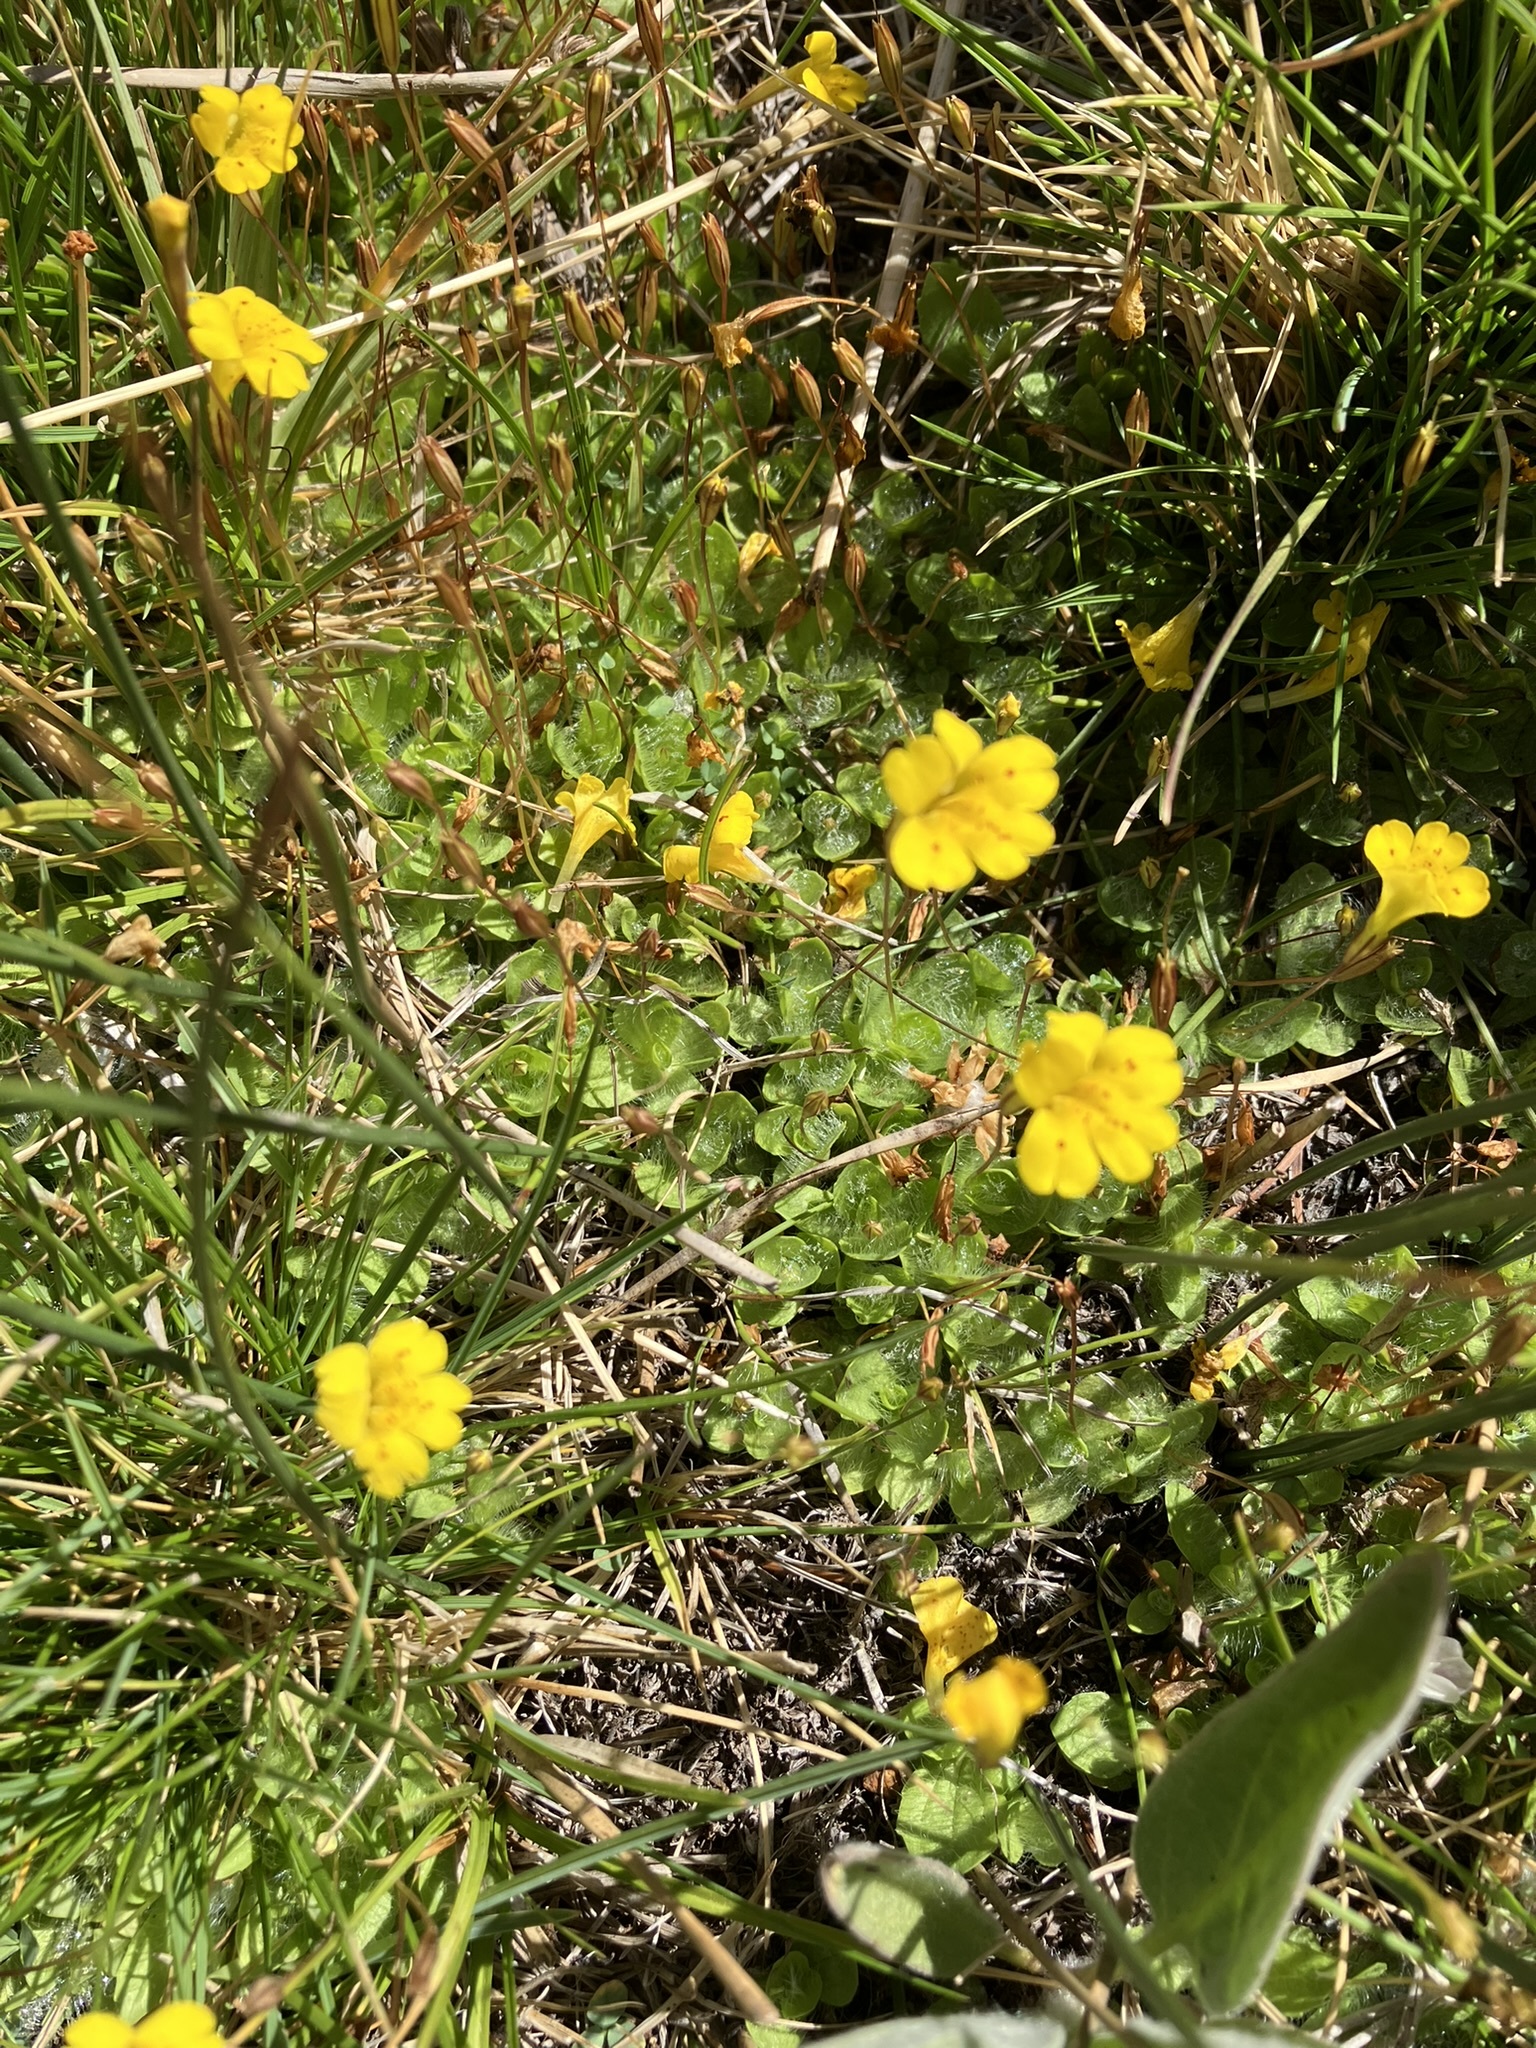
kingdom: Plantae
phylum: Tracheophyta
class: Magnoliopsida
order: Lamiales
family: Phrymaceae
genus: Erythranthe
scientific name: Erythranthe primuloides
